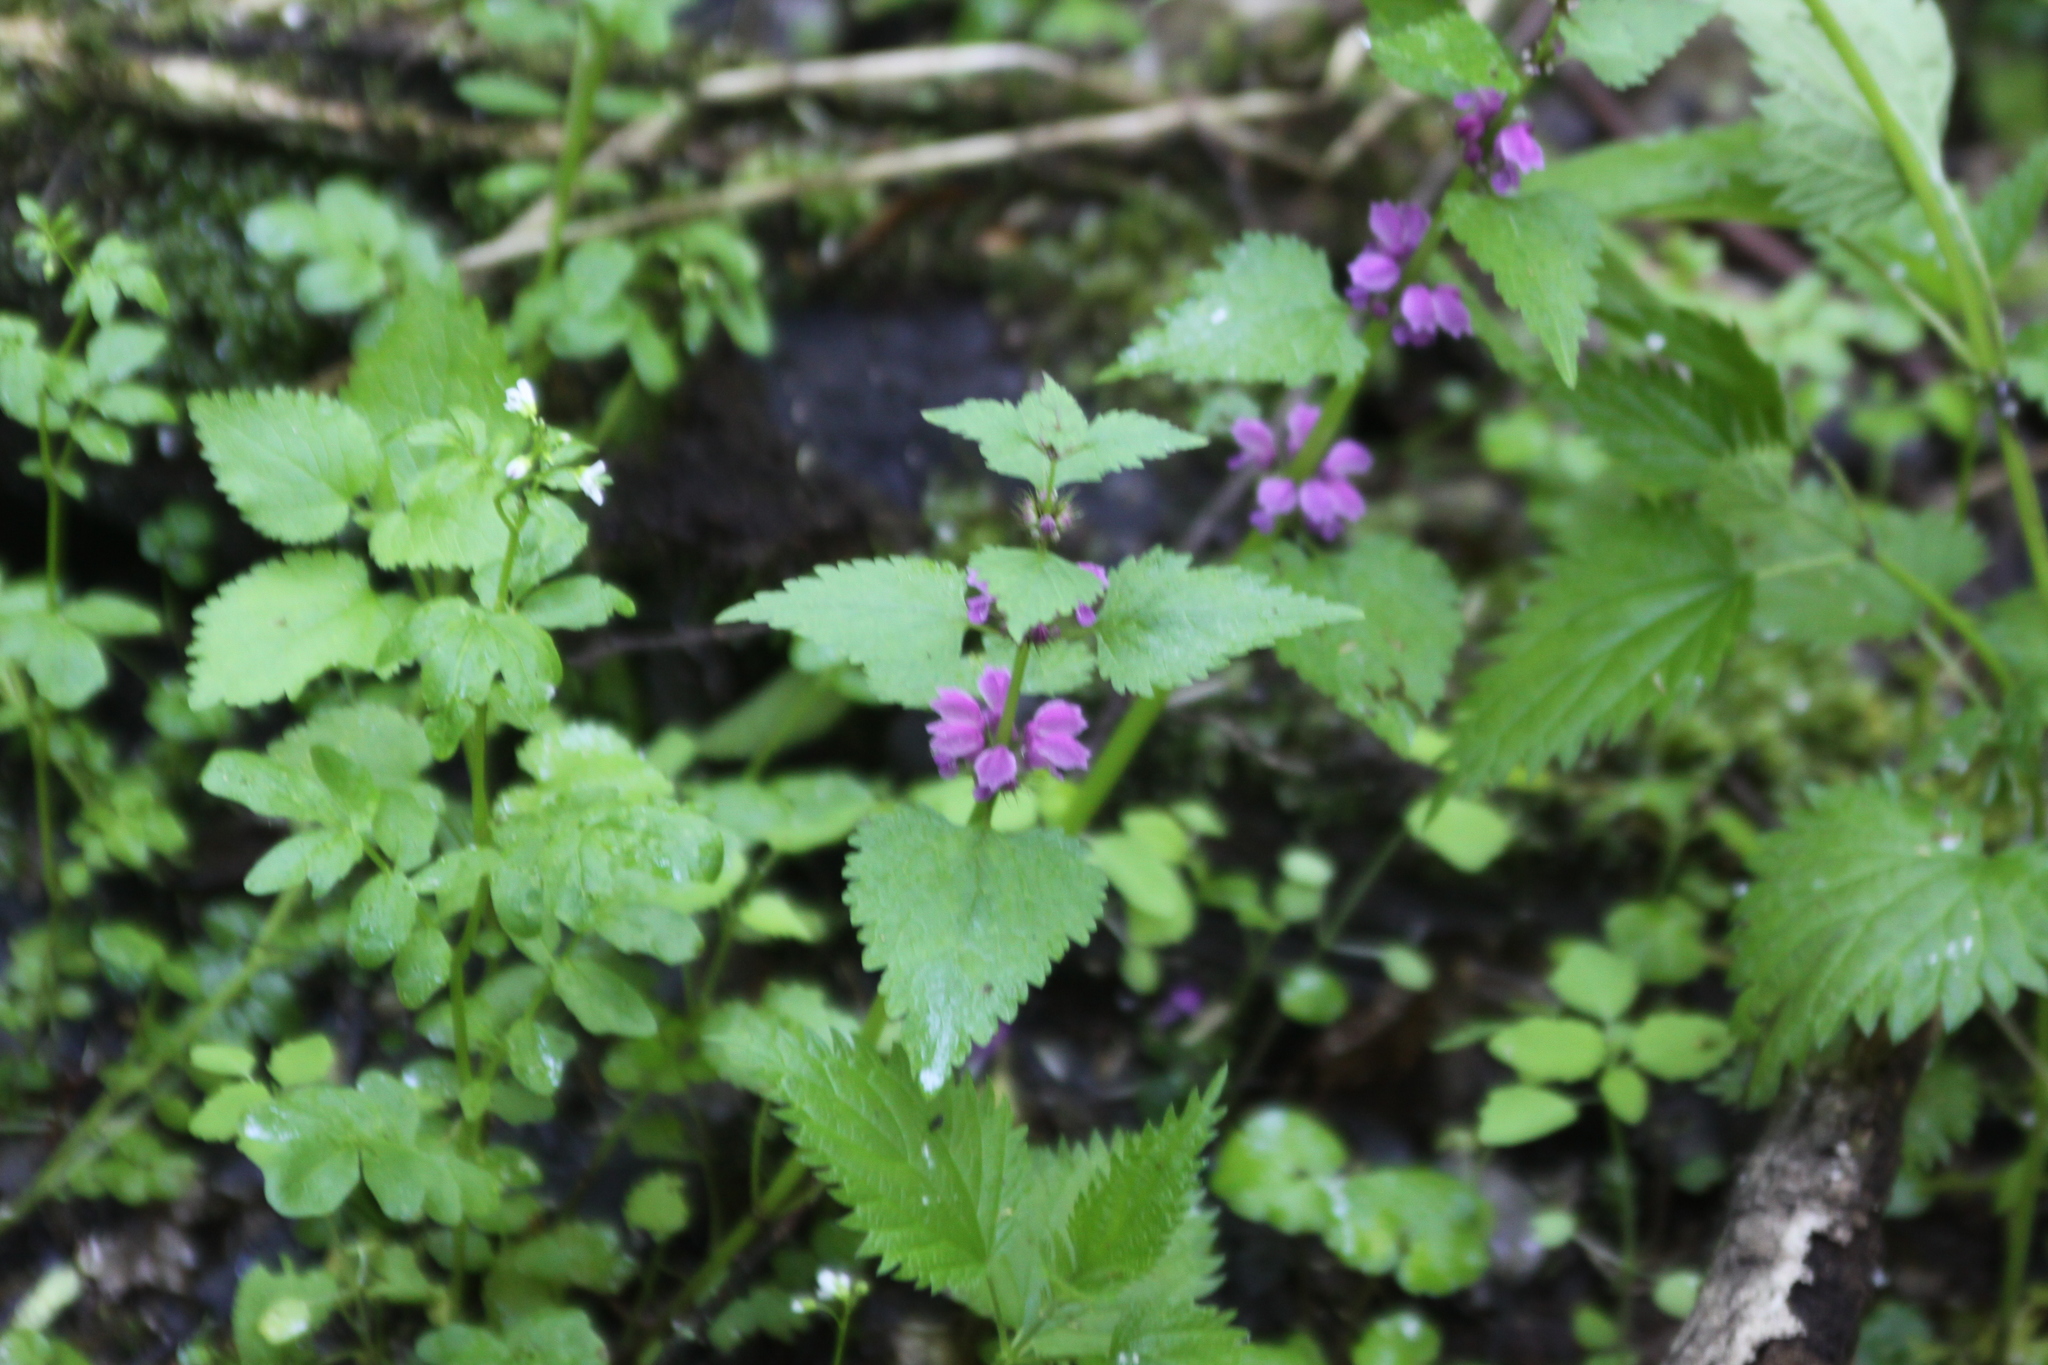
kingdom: Plantae
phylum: Tracheophyta
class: Magnoliopsida
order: Lamiales
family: Lamiaceae
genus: Lamium
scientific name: Lamium maculatum
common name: Spotted dead-nettle
